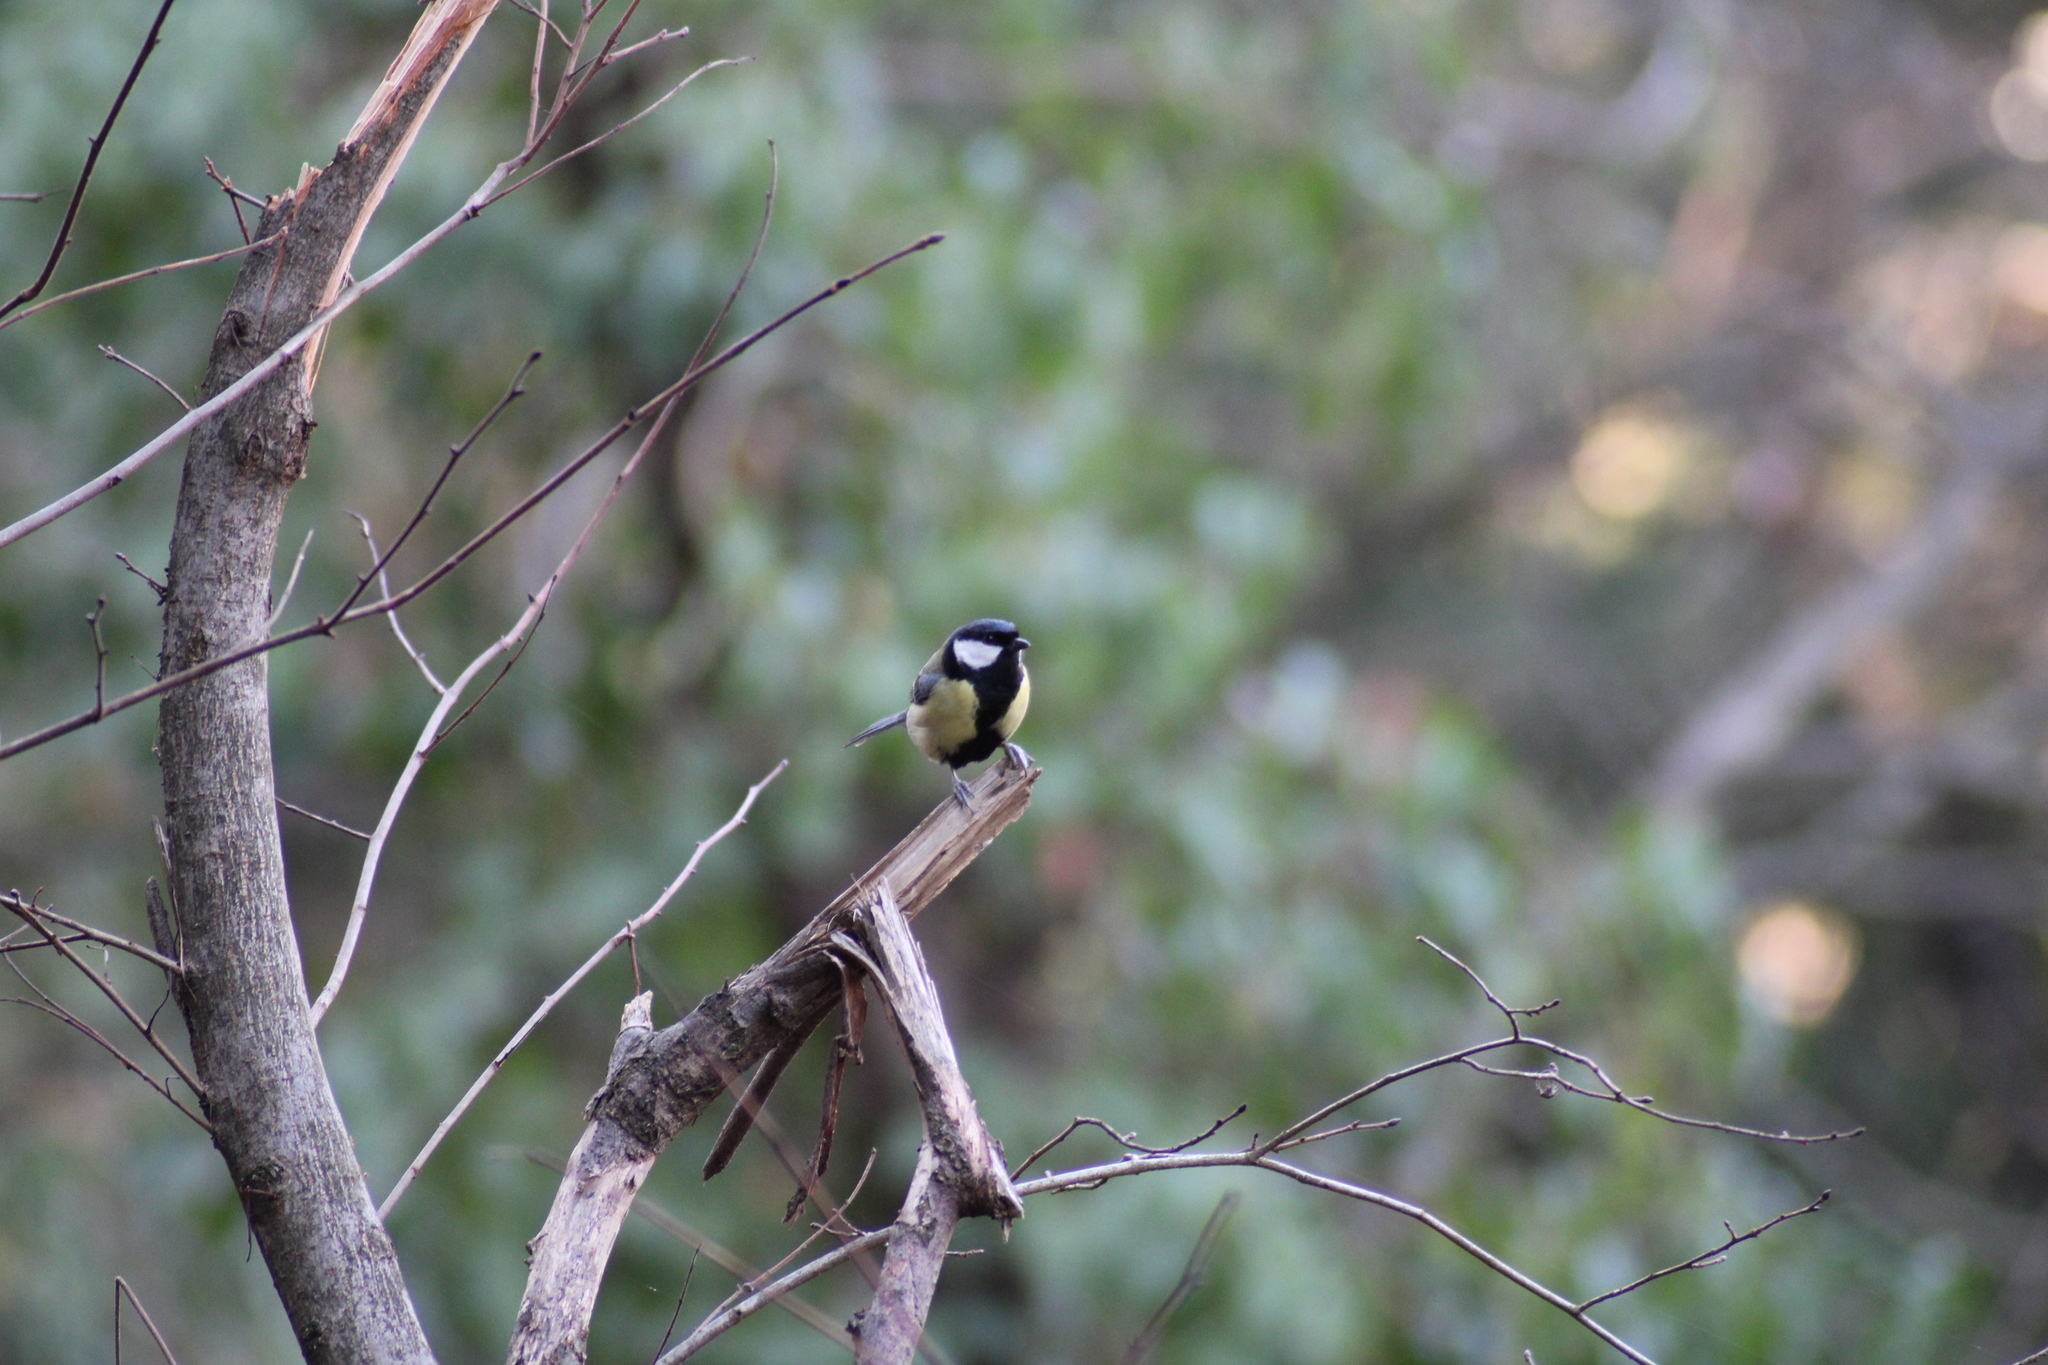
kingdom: Animalia
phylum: Chordata
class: Aves
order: Passeriformes
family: Paridae
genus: Parus
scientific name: Parus major
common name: Great tit
